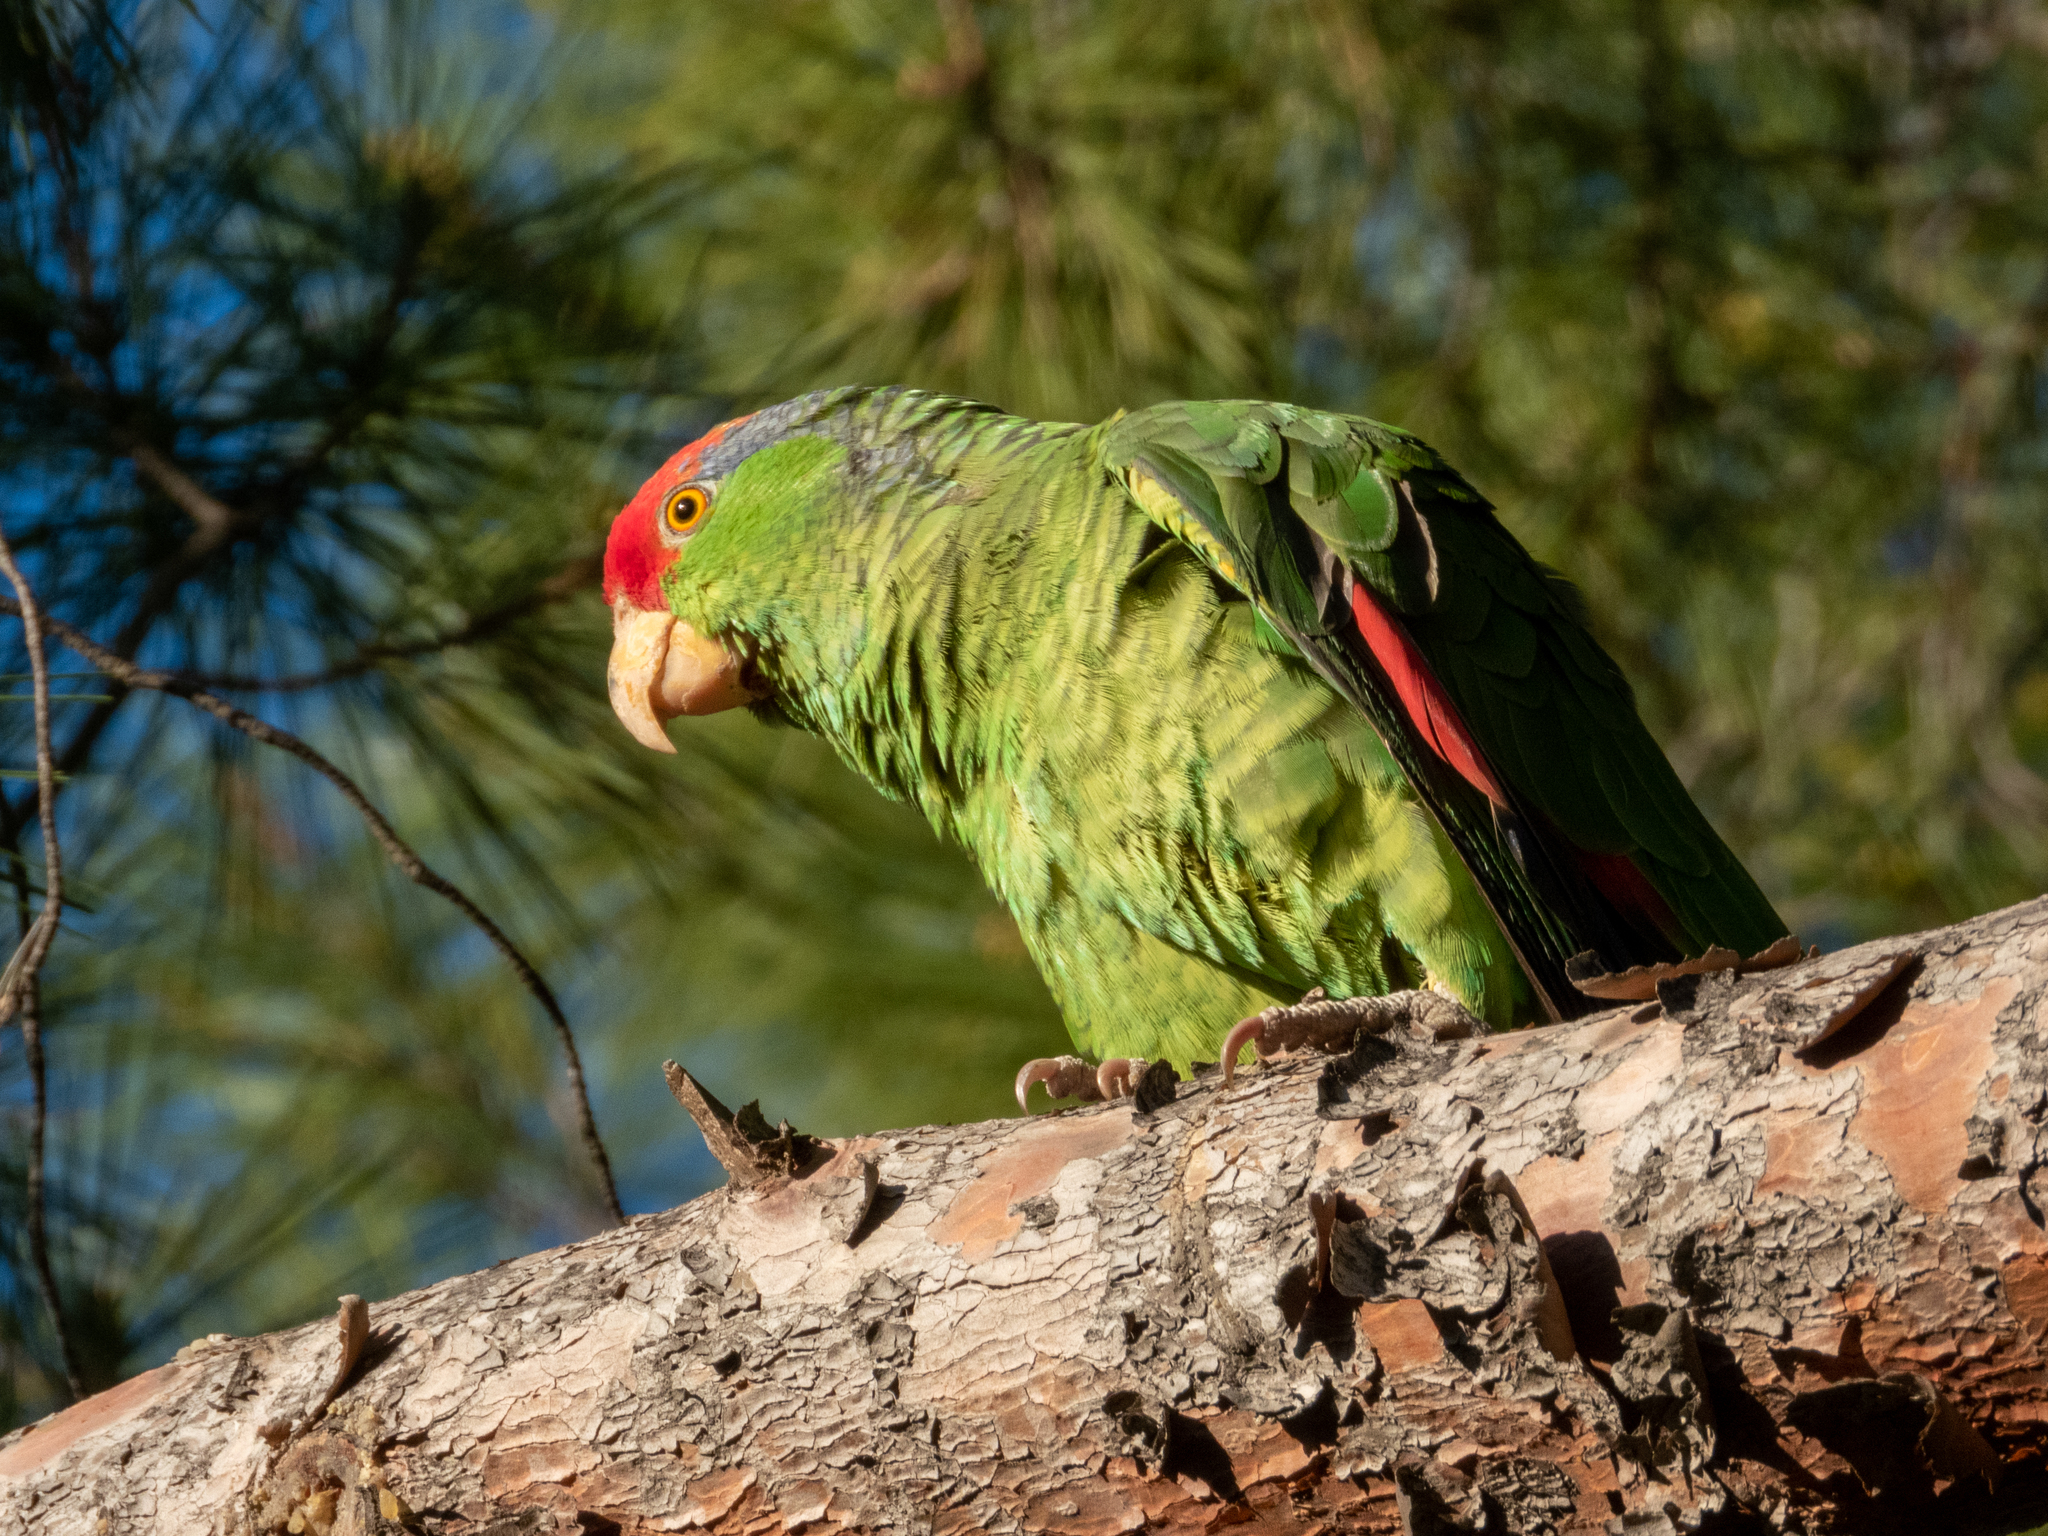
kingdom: Animalia
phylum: Chordata
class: Aves
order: Psittaciformes
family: Psittacidae
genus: Amazona
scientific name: Amazona viridigenalis
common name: Red-crowned amazon
